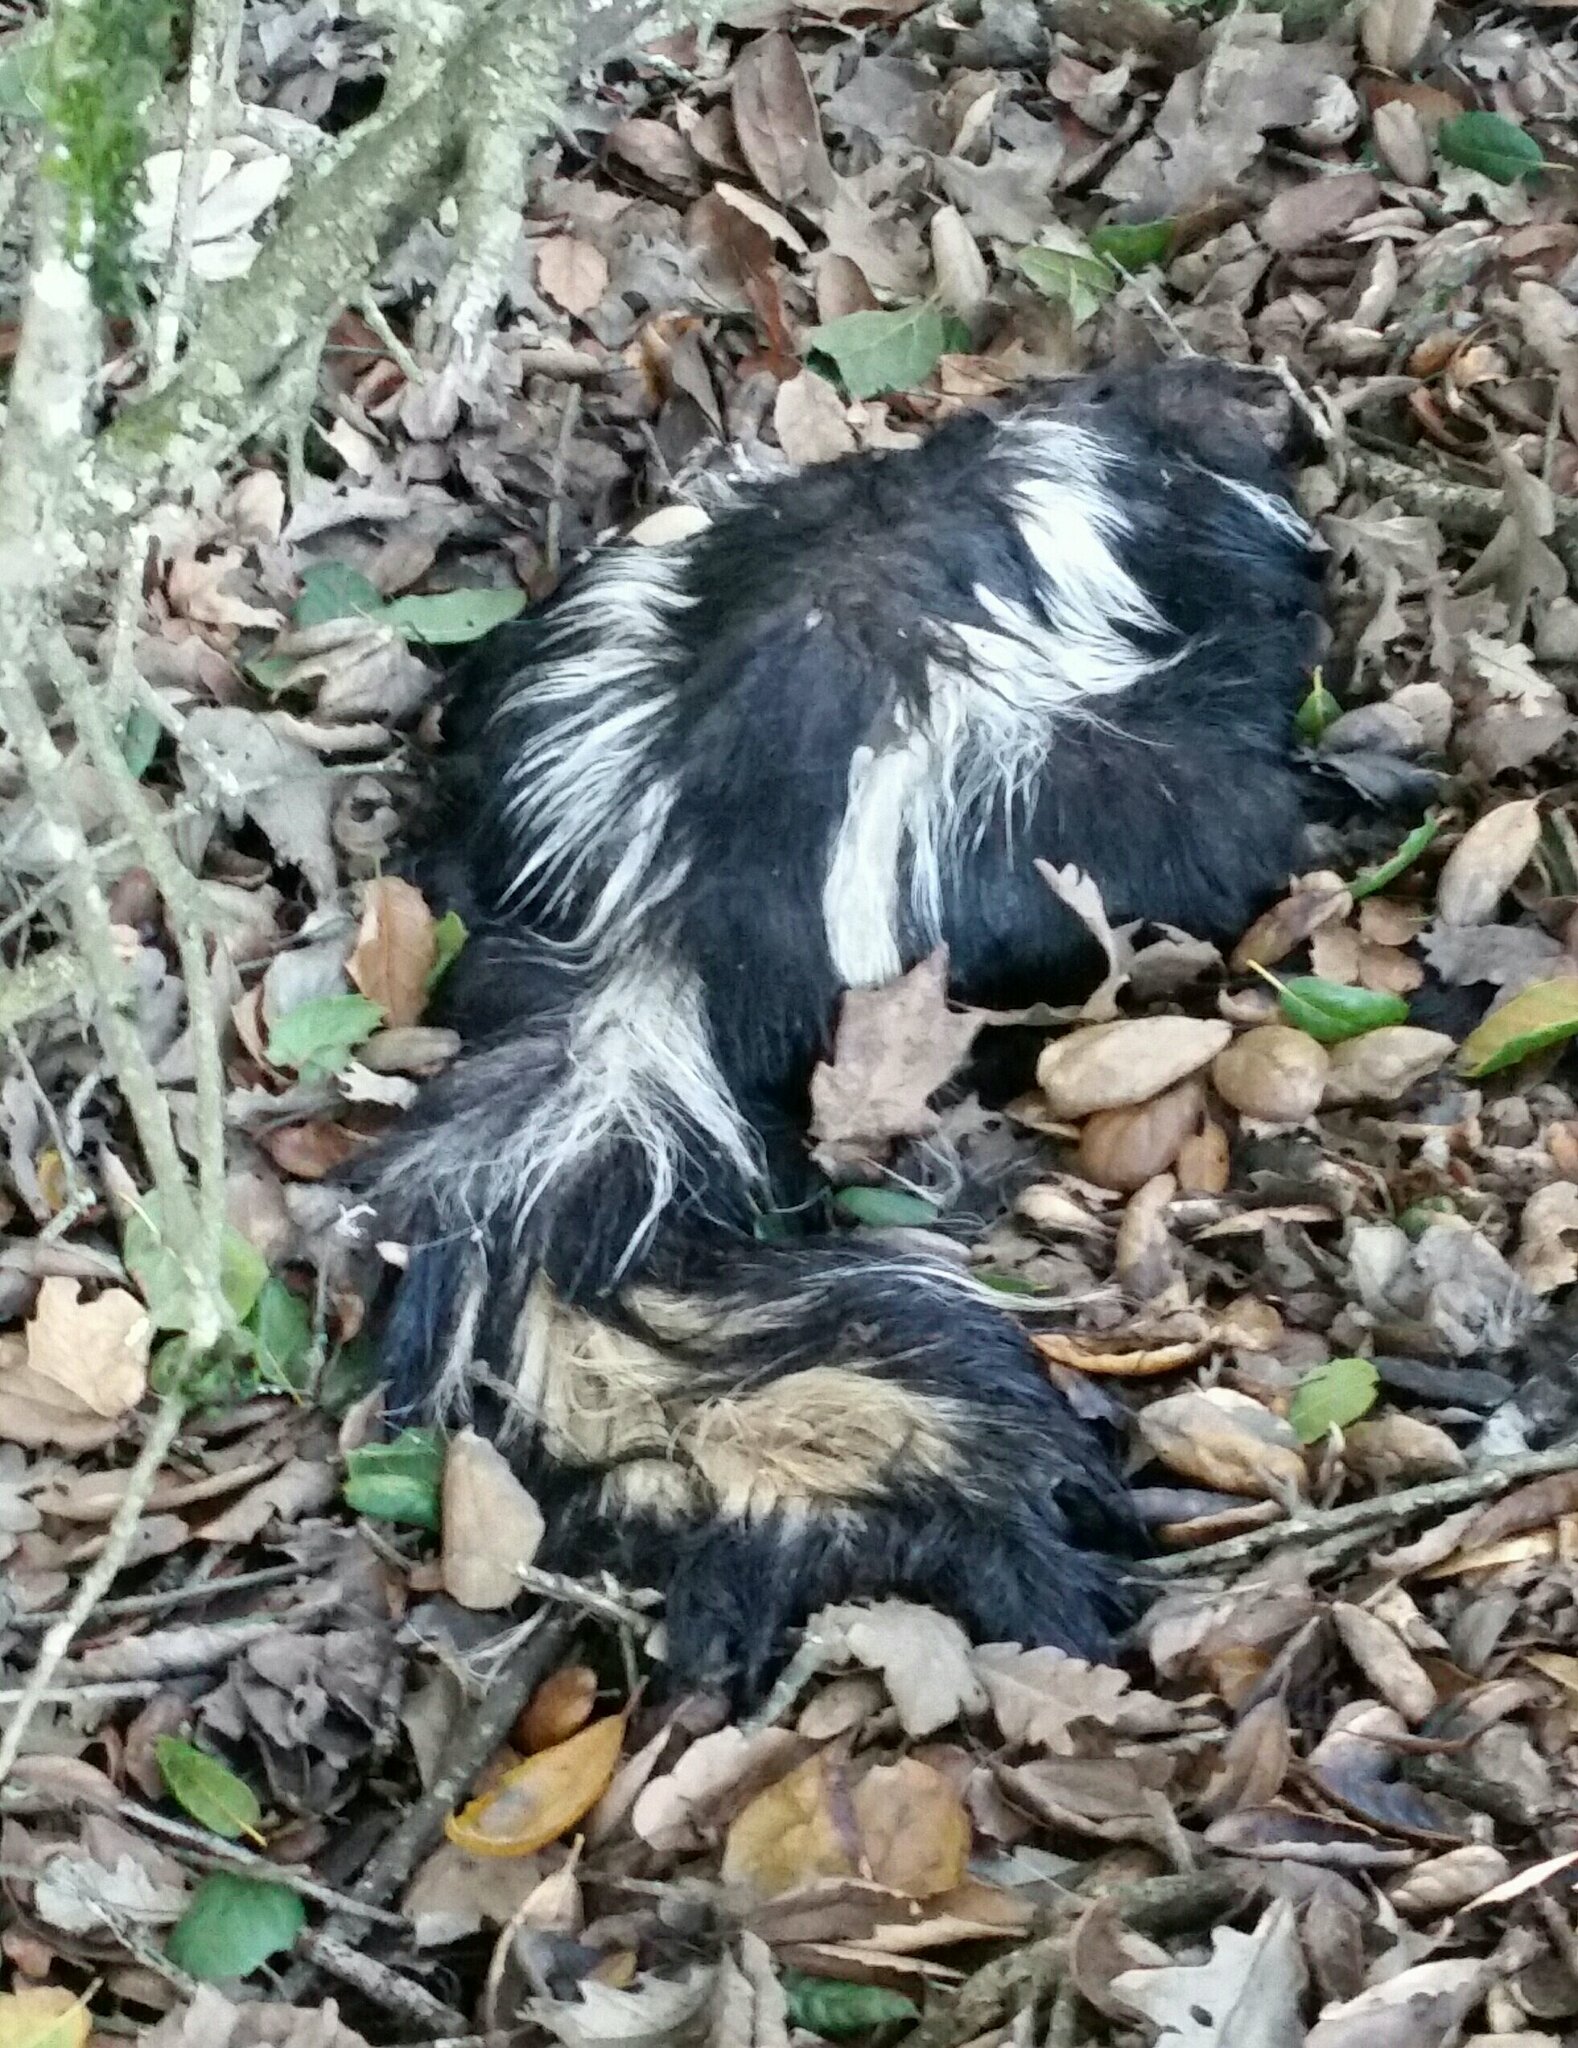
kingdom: Animalia
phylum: Chordata
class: Mammalia
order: Carnivora
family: Mephitidae
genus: Mephitis
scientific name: Mephitis mephitis
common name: Striped skunk
